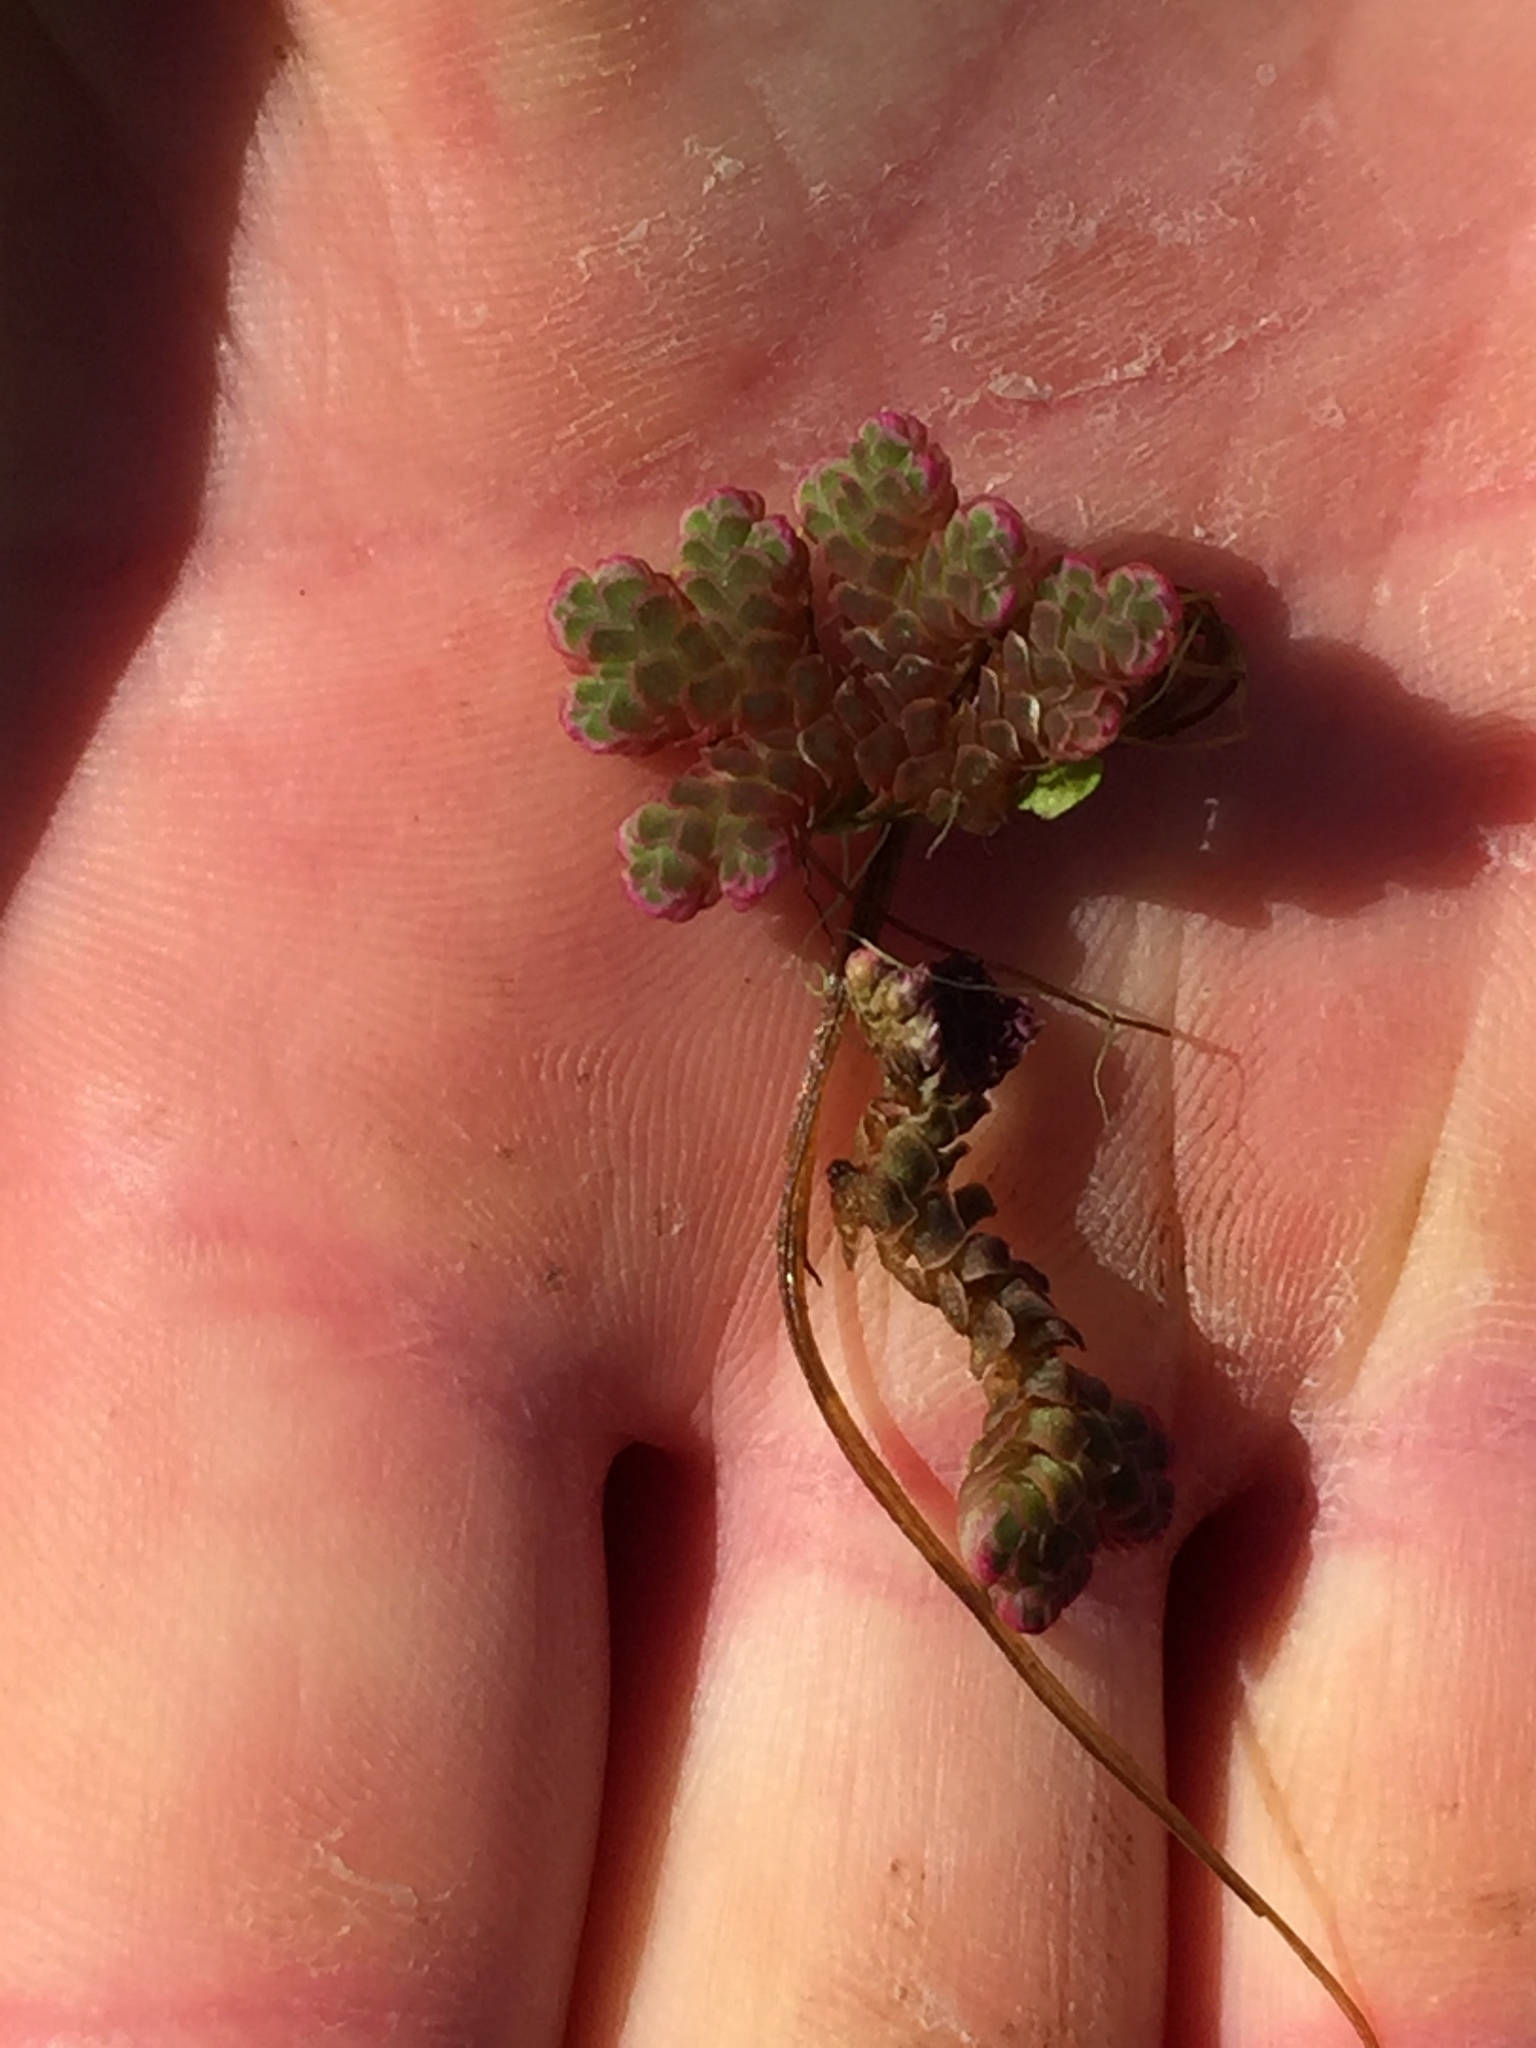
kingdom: Plantae
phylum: Tracheophyta
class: Polypodiopsida
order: Salviniales
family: Salviniaceae
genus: Azolla
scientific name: Azolla rubra
